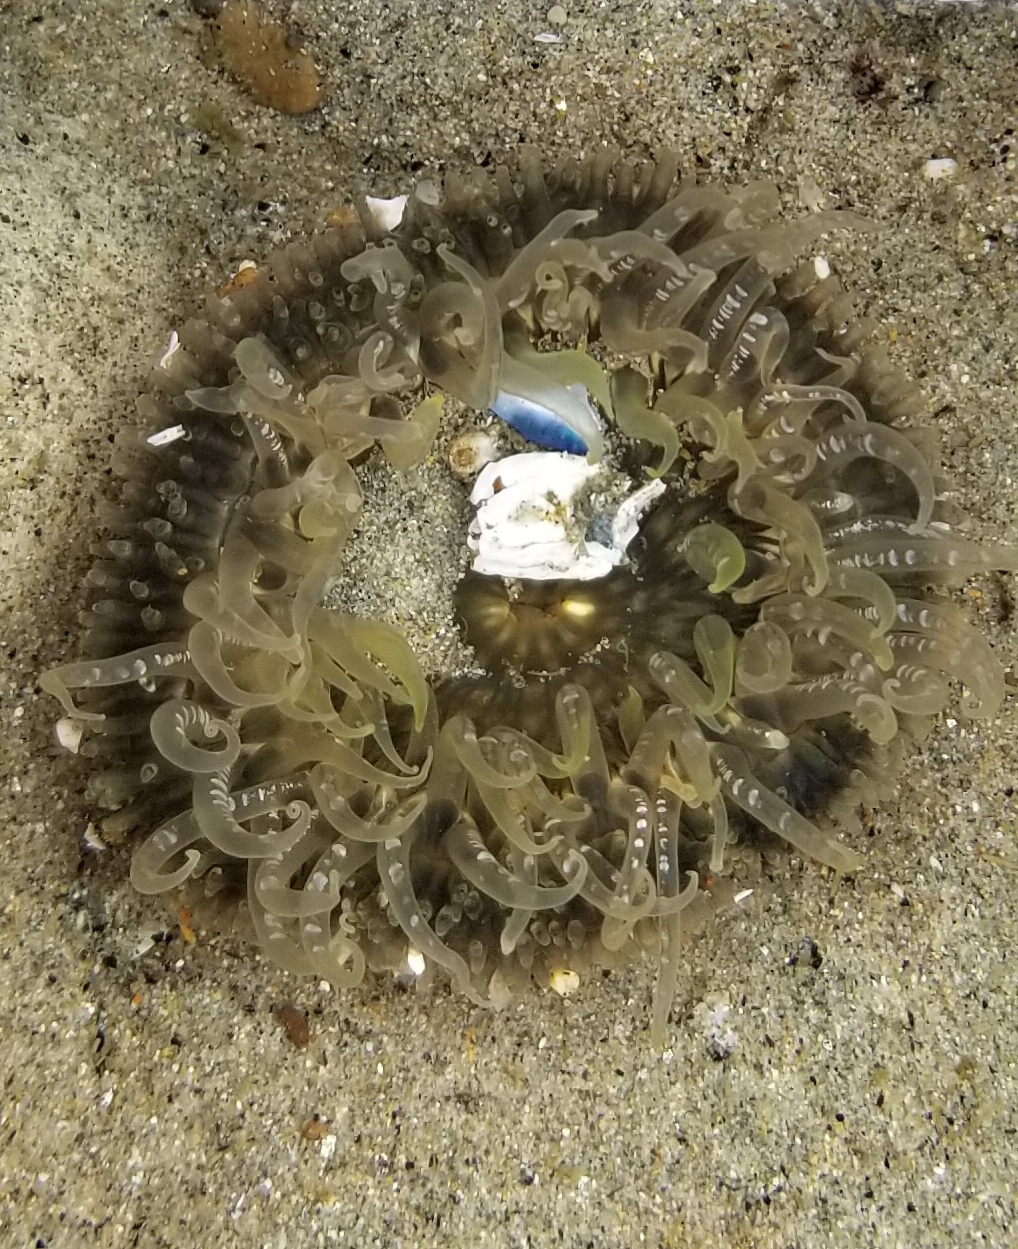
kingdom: Animalia
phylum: Cnidaria
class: Anthozoa
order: Actiniaria
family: Actiniidae
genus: Anthopleura
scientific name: Anthopleura artemisia
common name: Buried sea anemone
